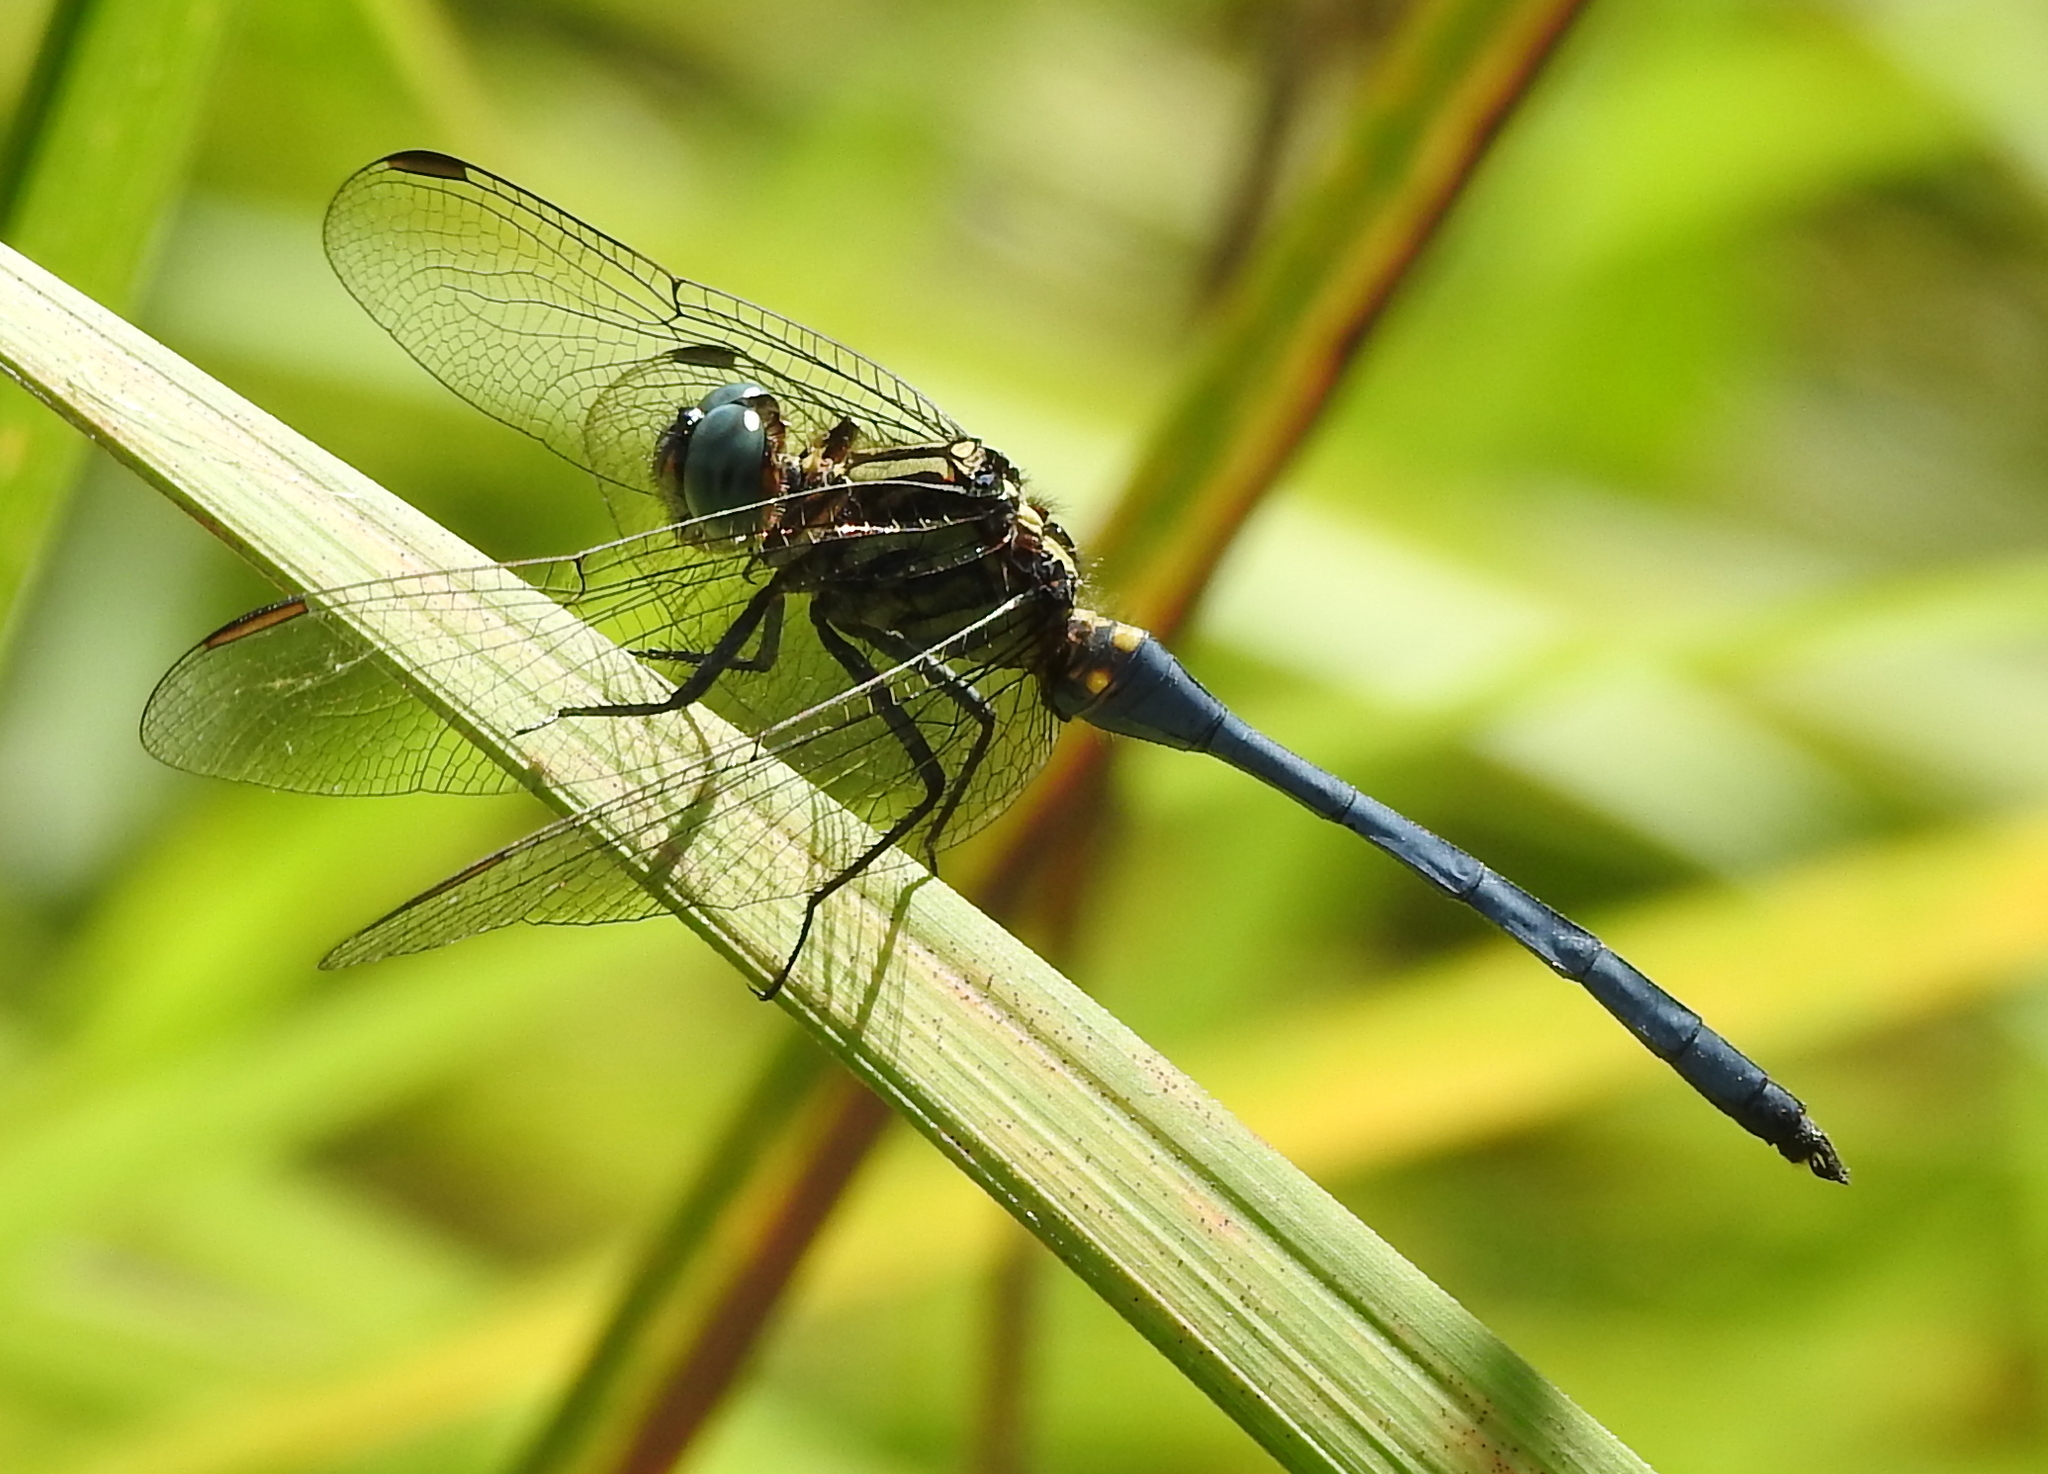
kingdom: Animalia
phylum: Arthropoda
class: Insecta
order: Odonata
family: Libellulidae
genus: Orthetrum
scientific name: Orthetrum luzonicum
